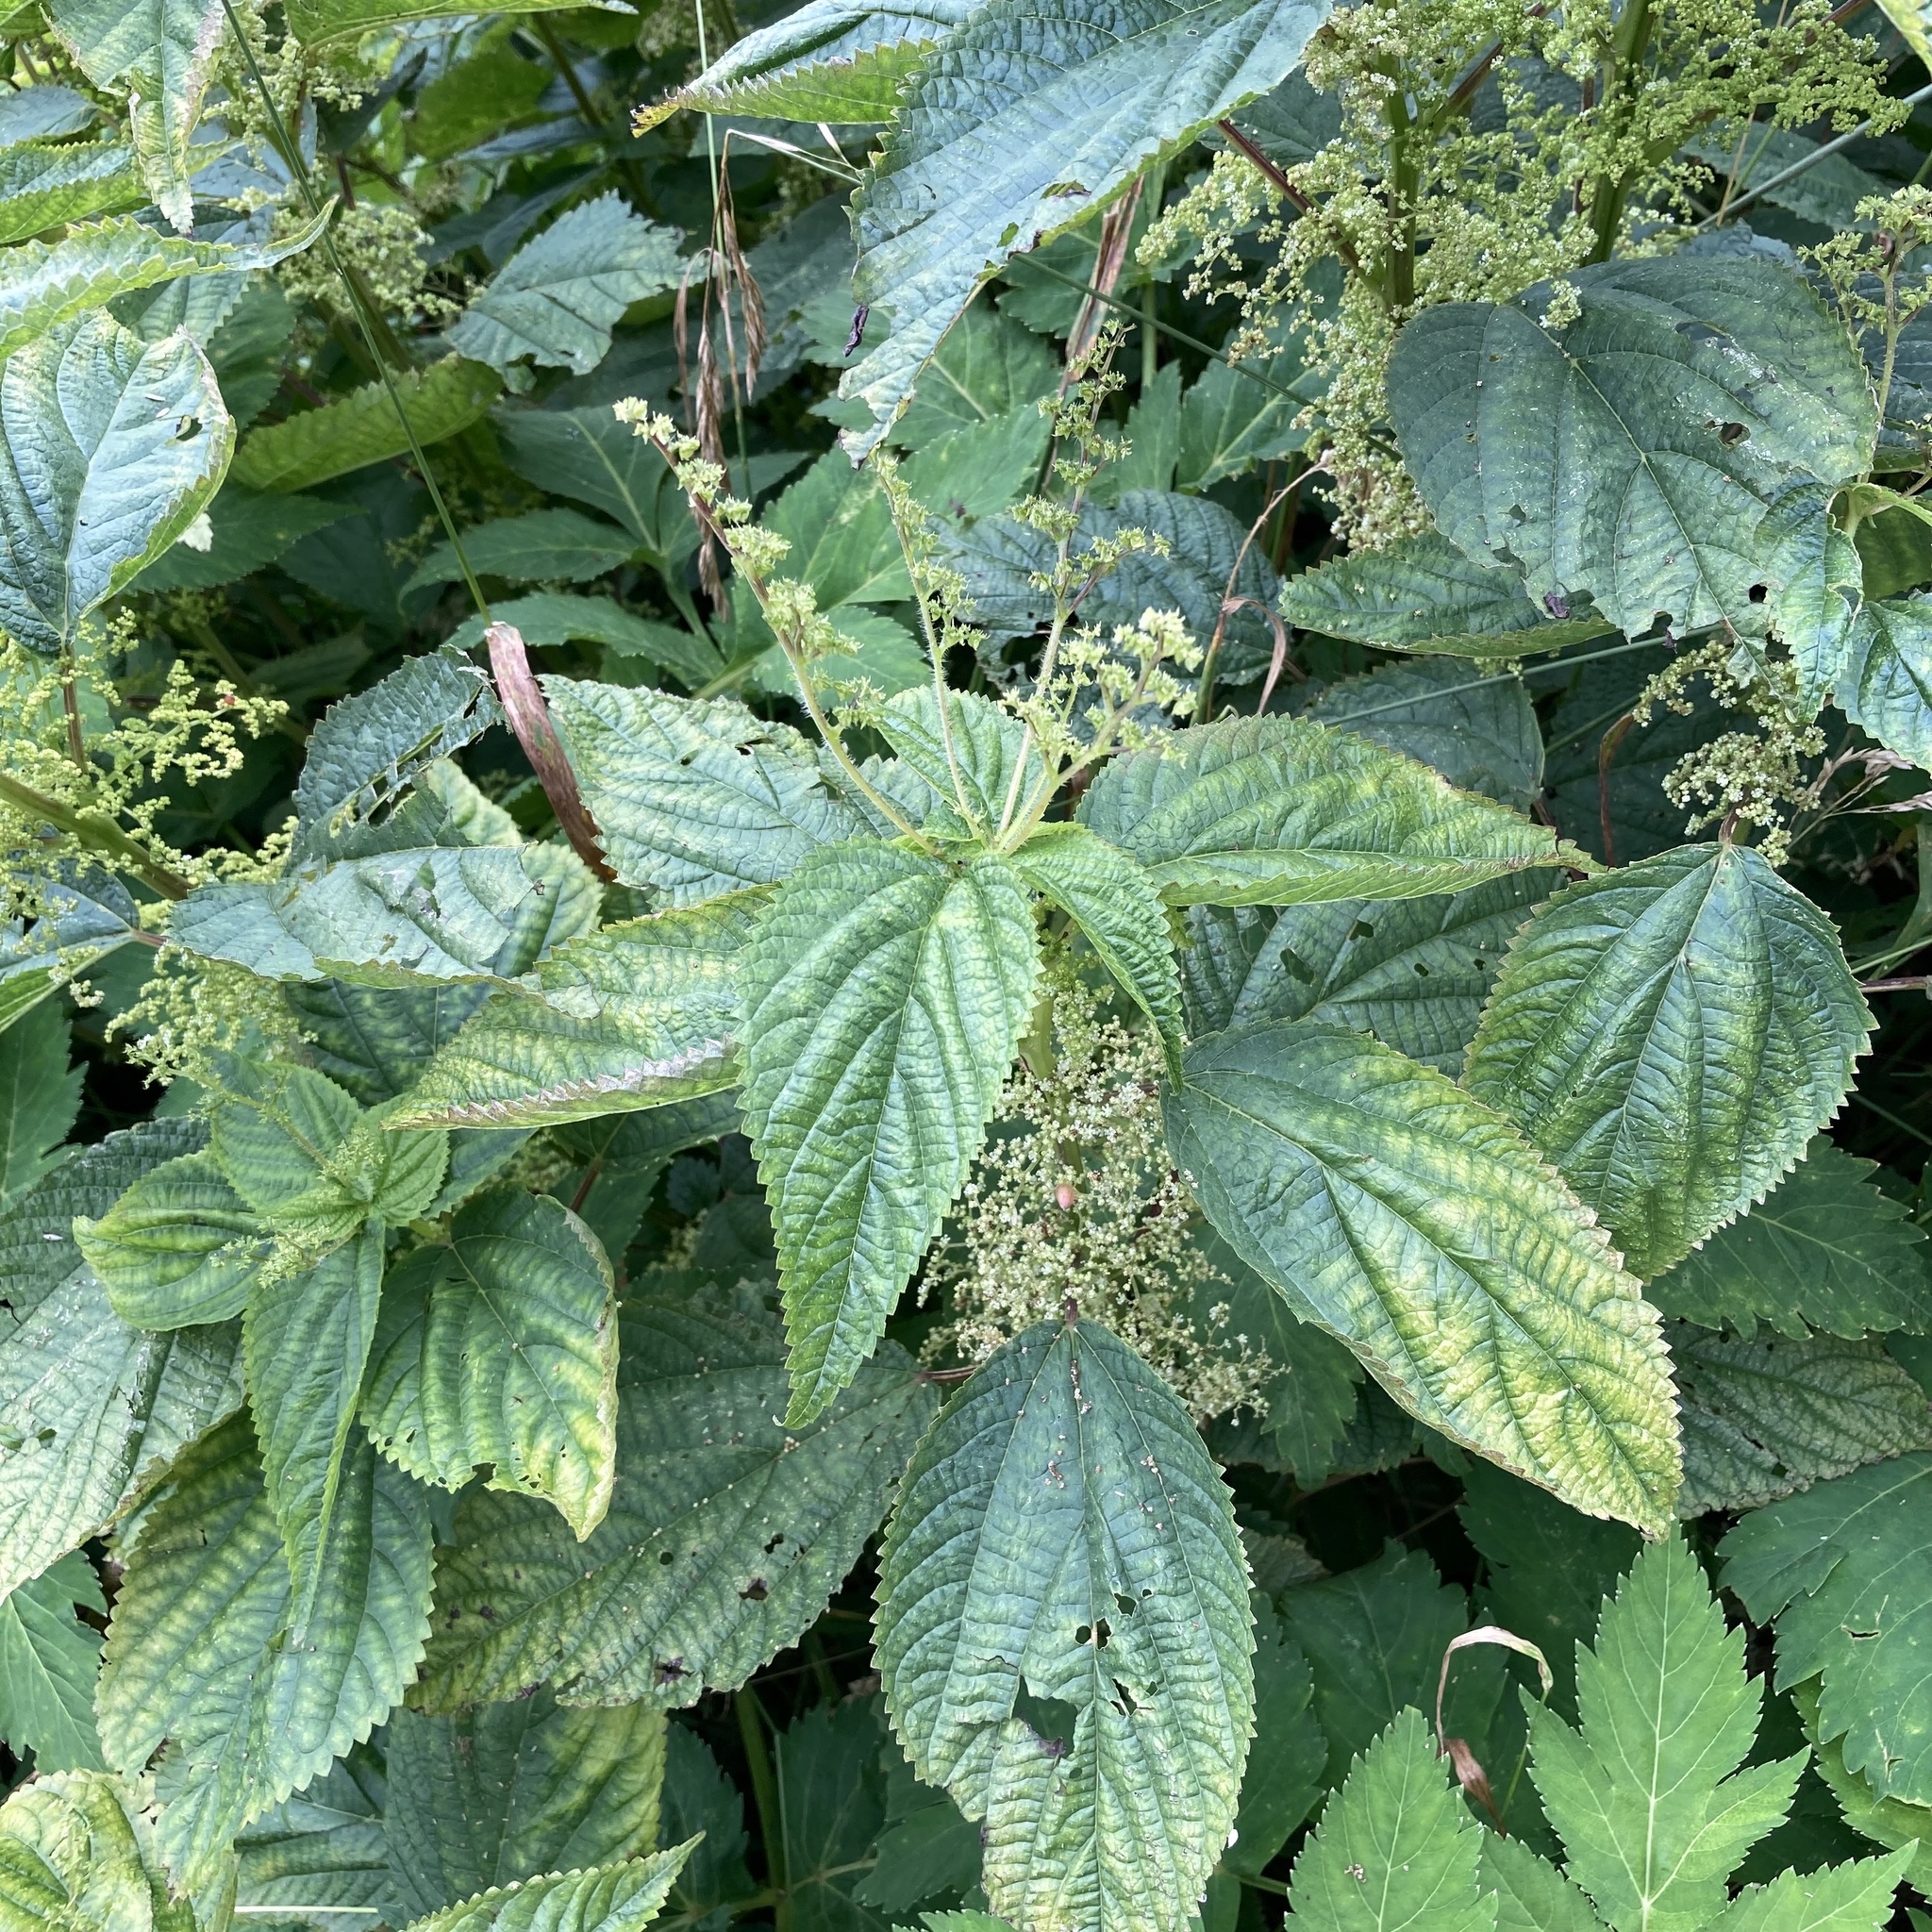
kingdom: Plantae
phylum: Tracheophyta
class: Magnoliopsida
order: Rosales
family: Urticaceae
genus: Laportea
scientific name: Laportea canadensis
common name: Canada nettle
